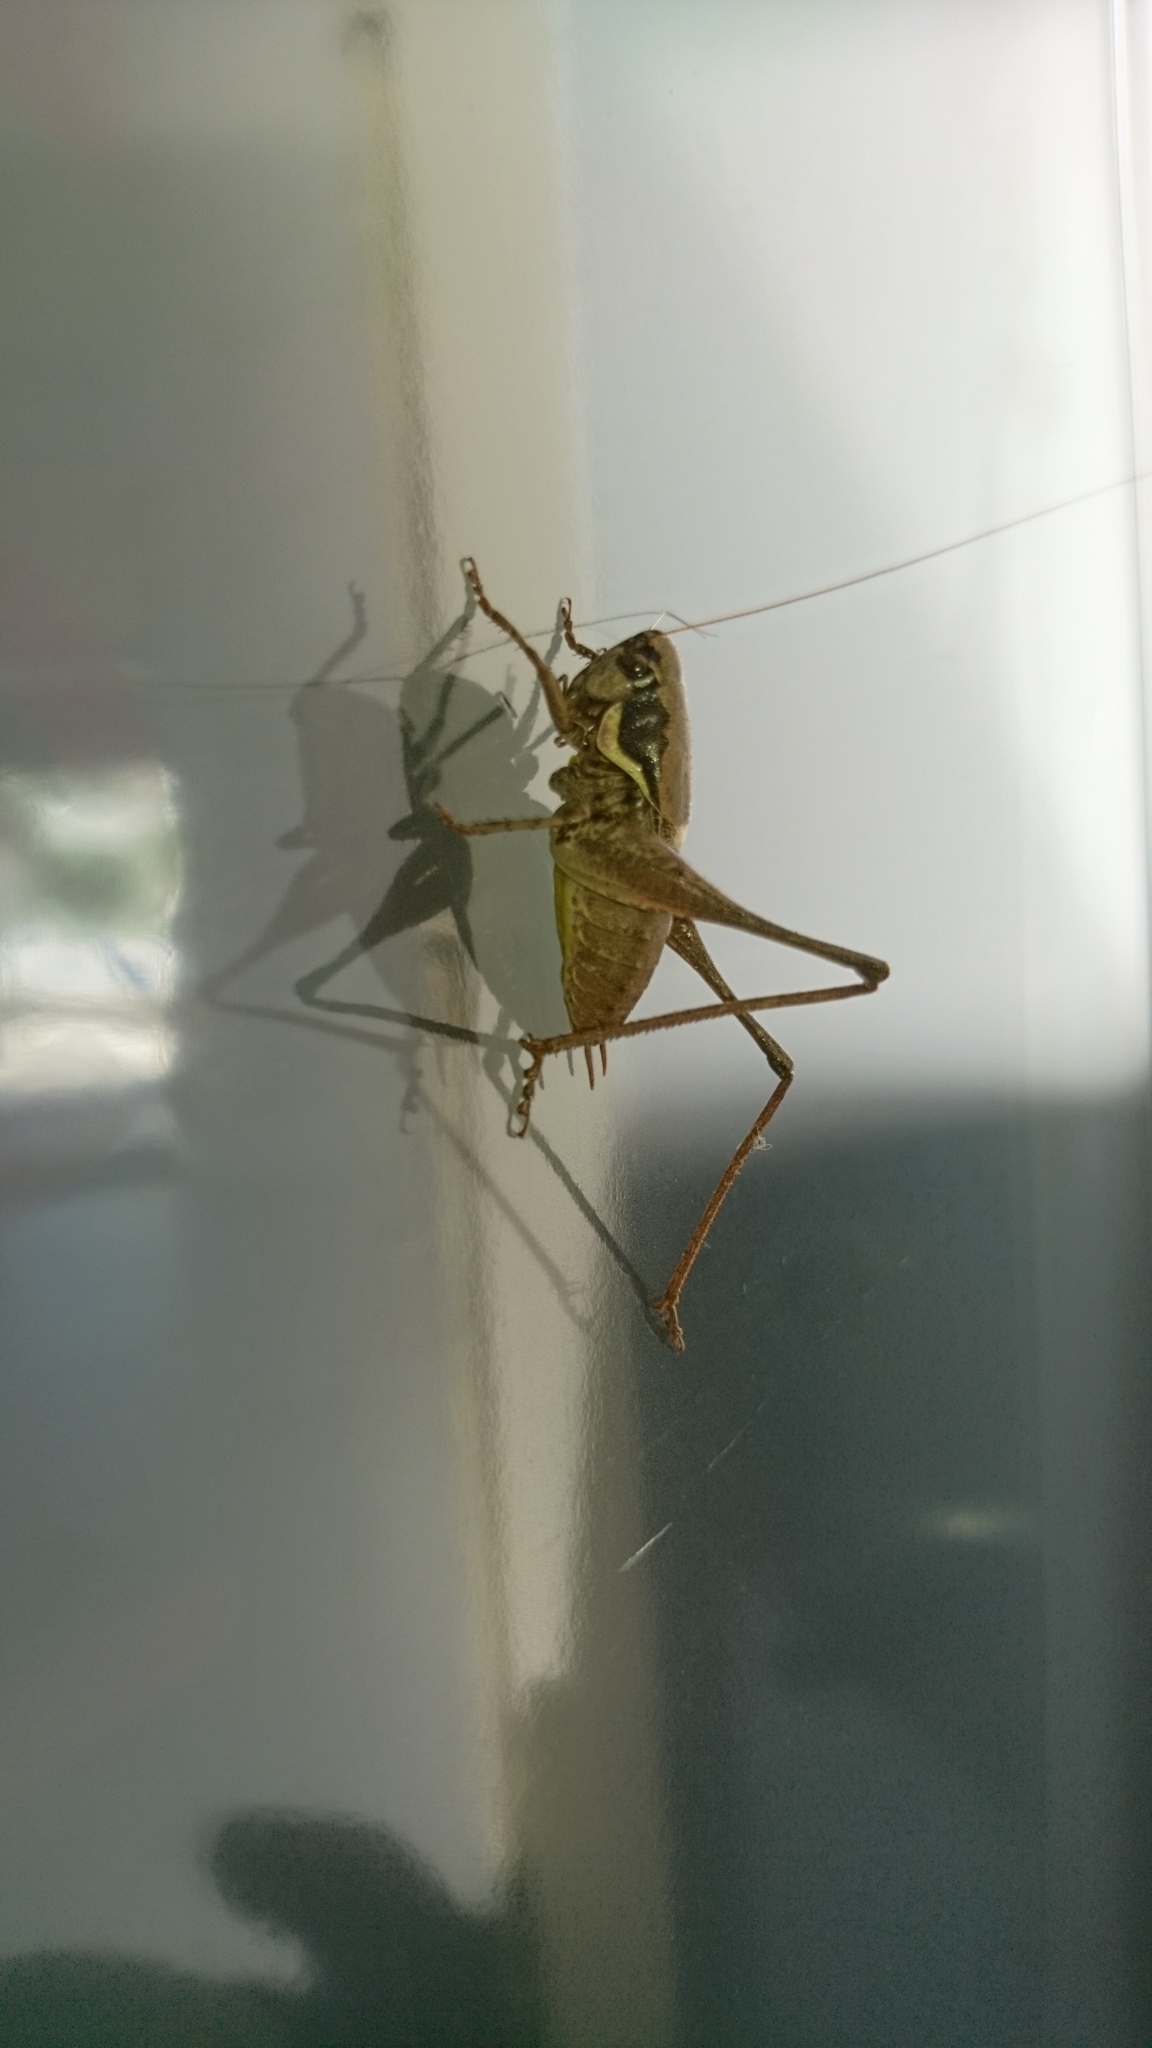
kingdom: Animalia
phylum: Arthropoda
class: Insecta
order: Orthoptera
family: Tettigoniidae
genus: Pholidoptera
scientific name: Pholidoptera femorata
